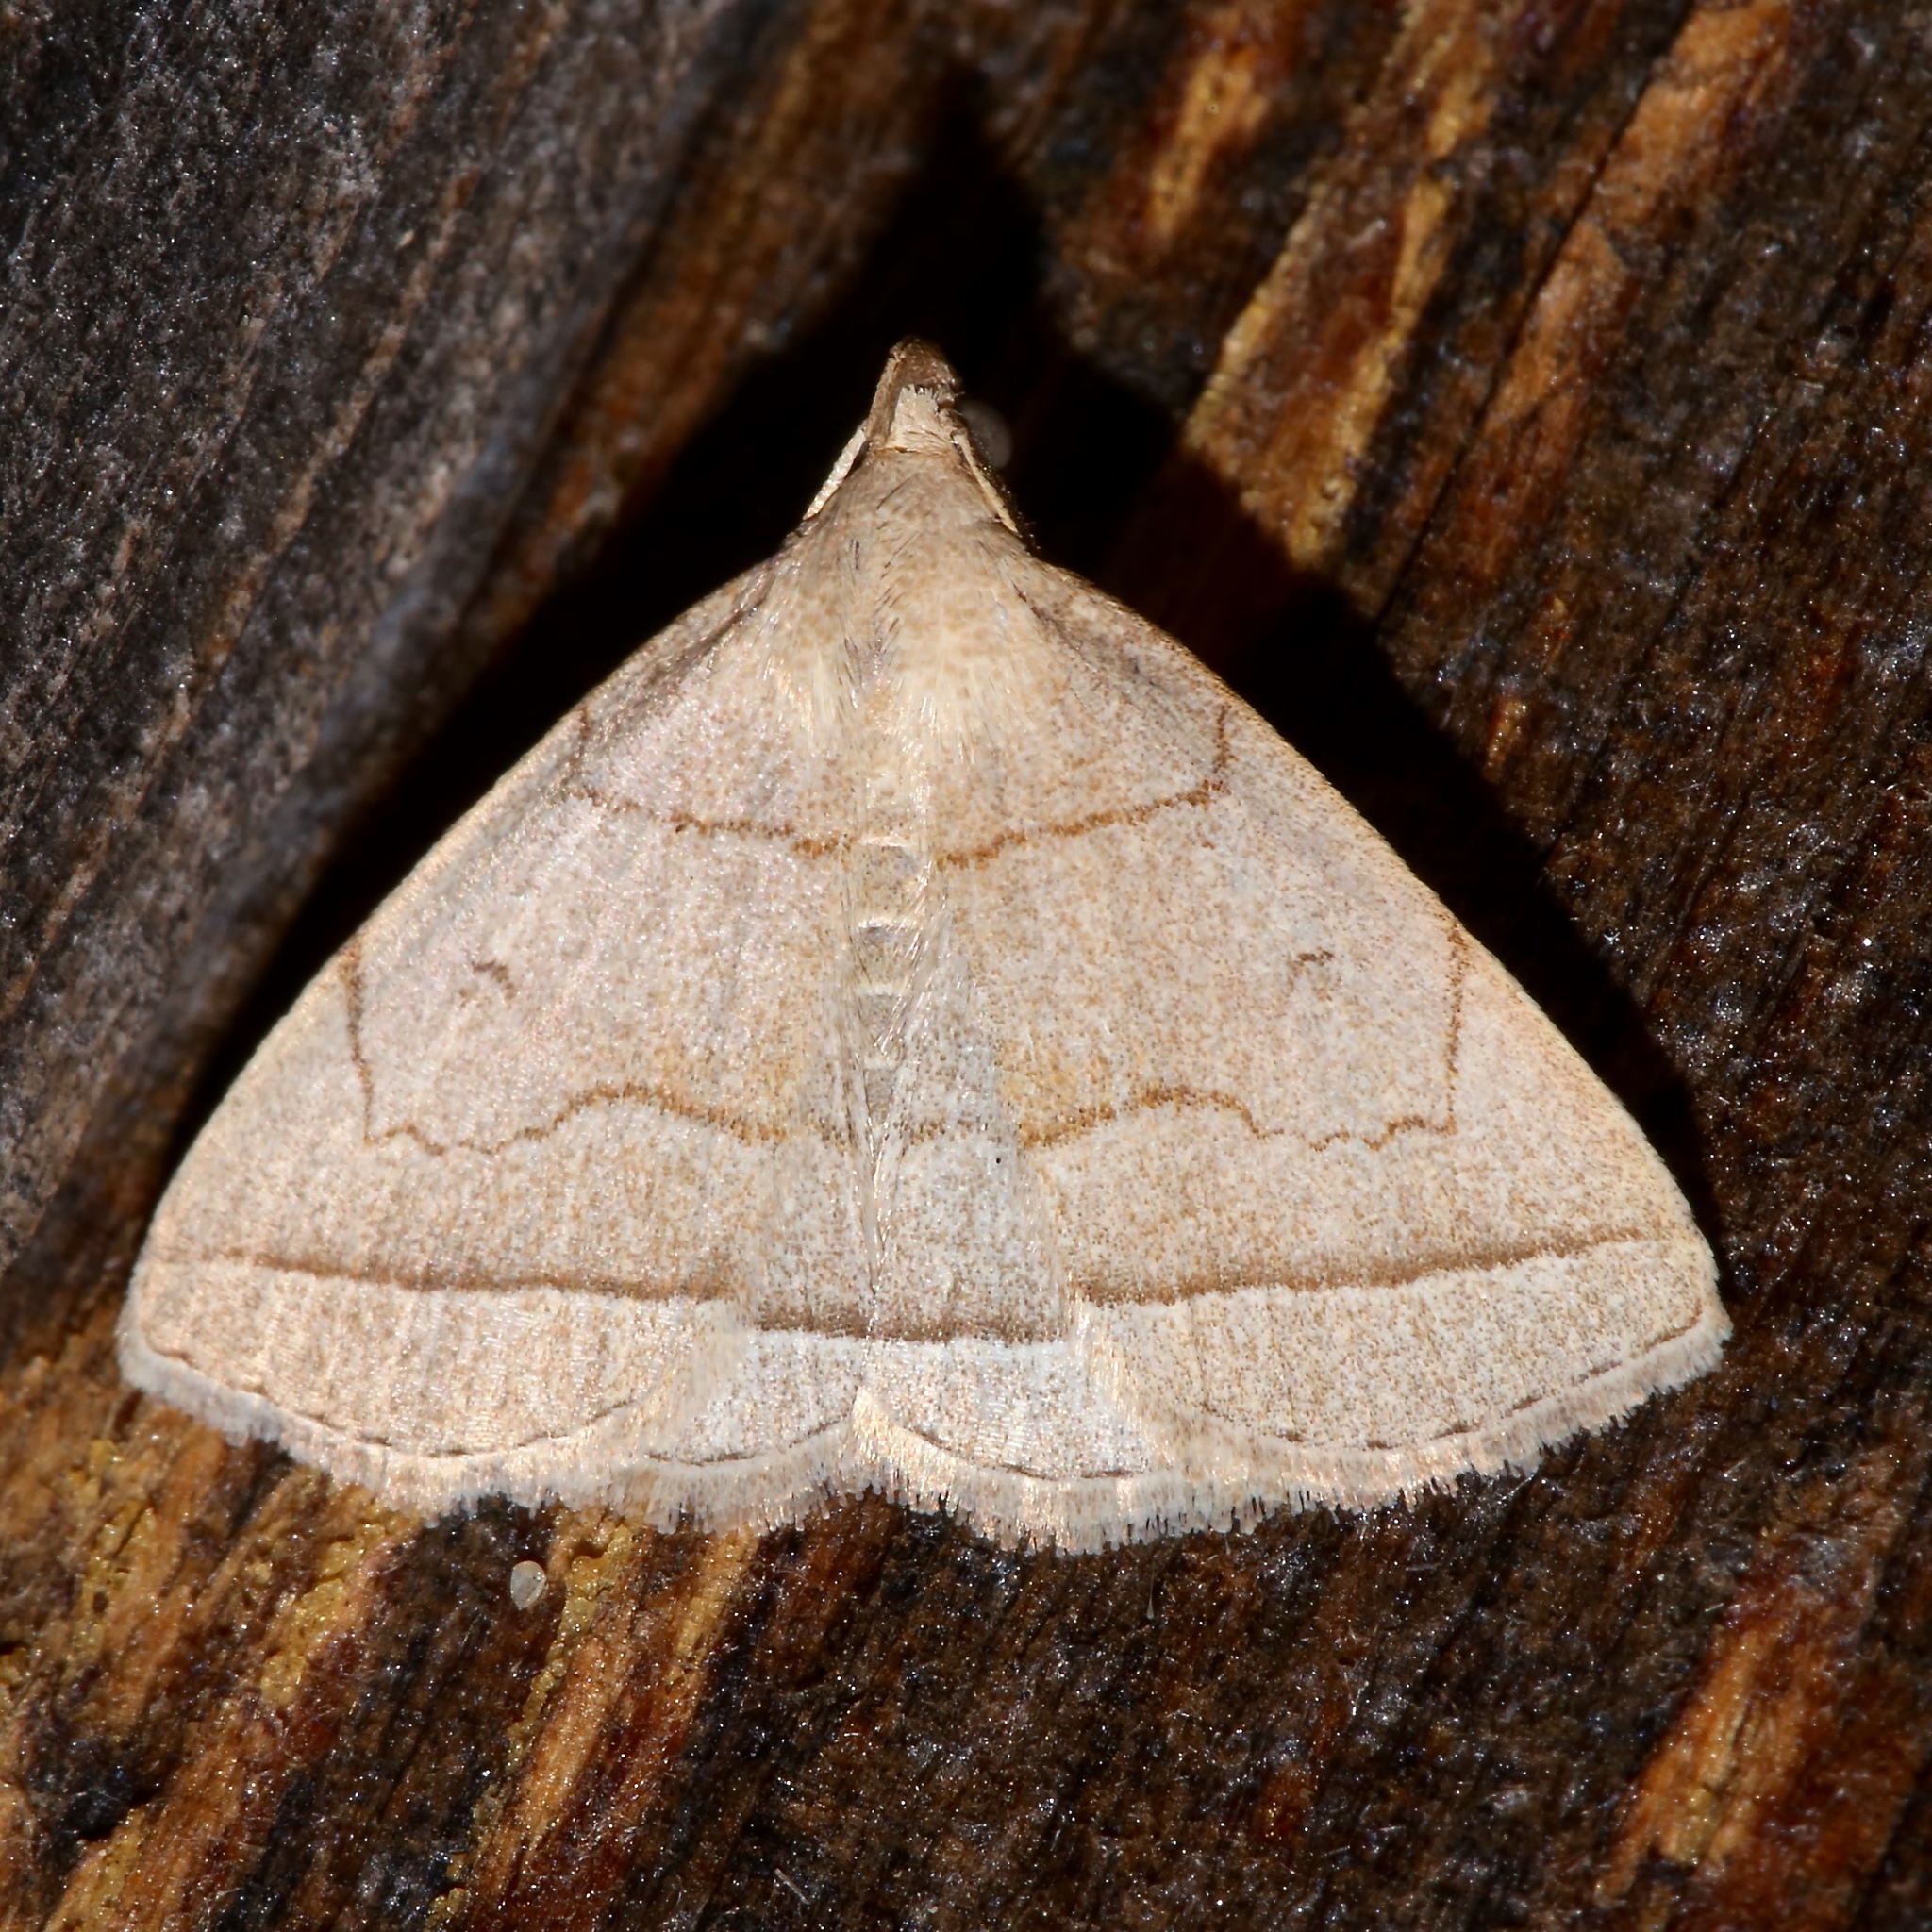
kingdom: Animalia
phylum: Arthropoda
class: Insecta
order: Lepidoptera
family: Erebidae
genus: Zanclognatha
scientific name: Zanclognatha cruralis
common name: Early fan-foot
